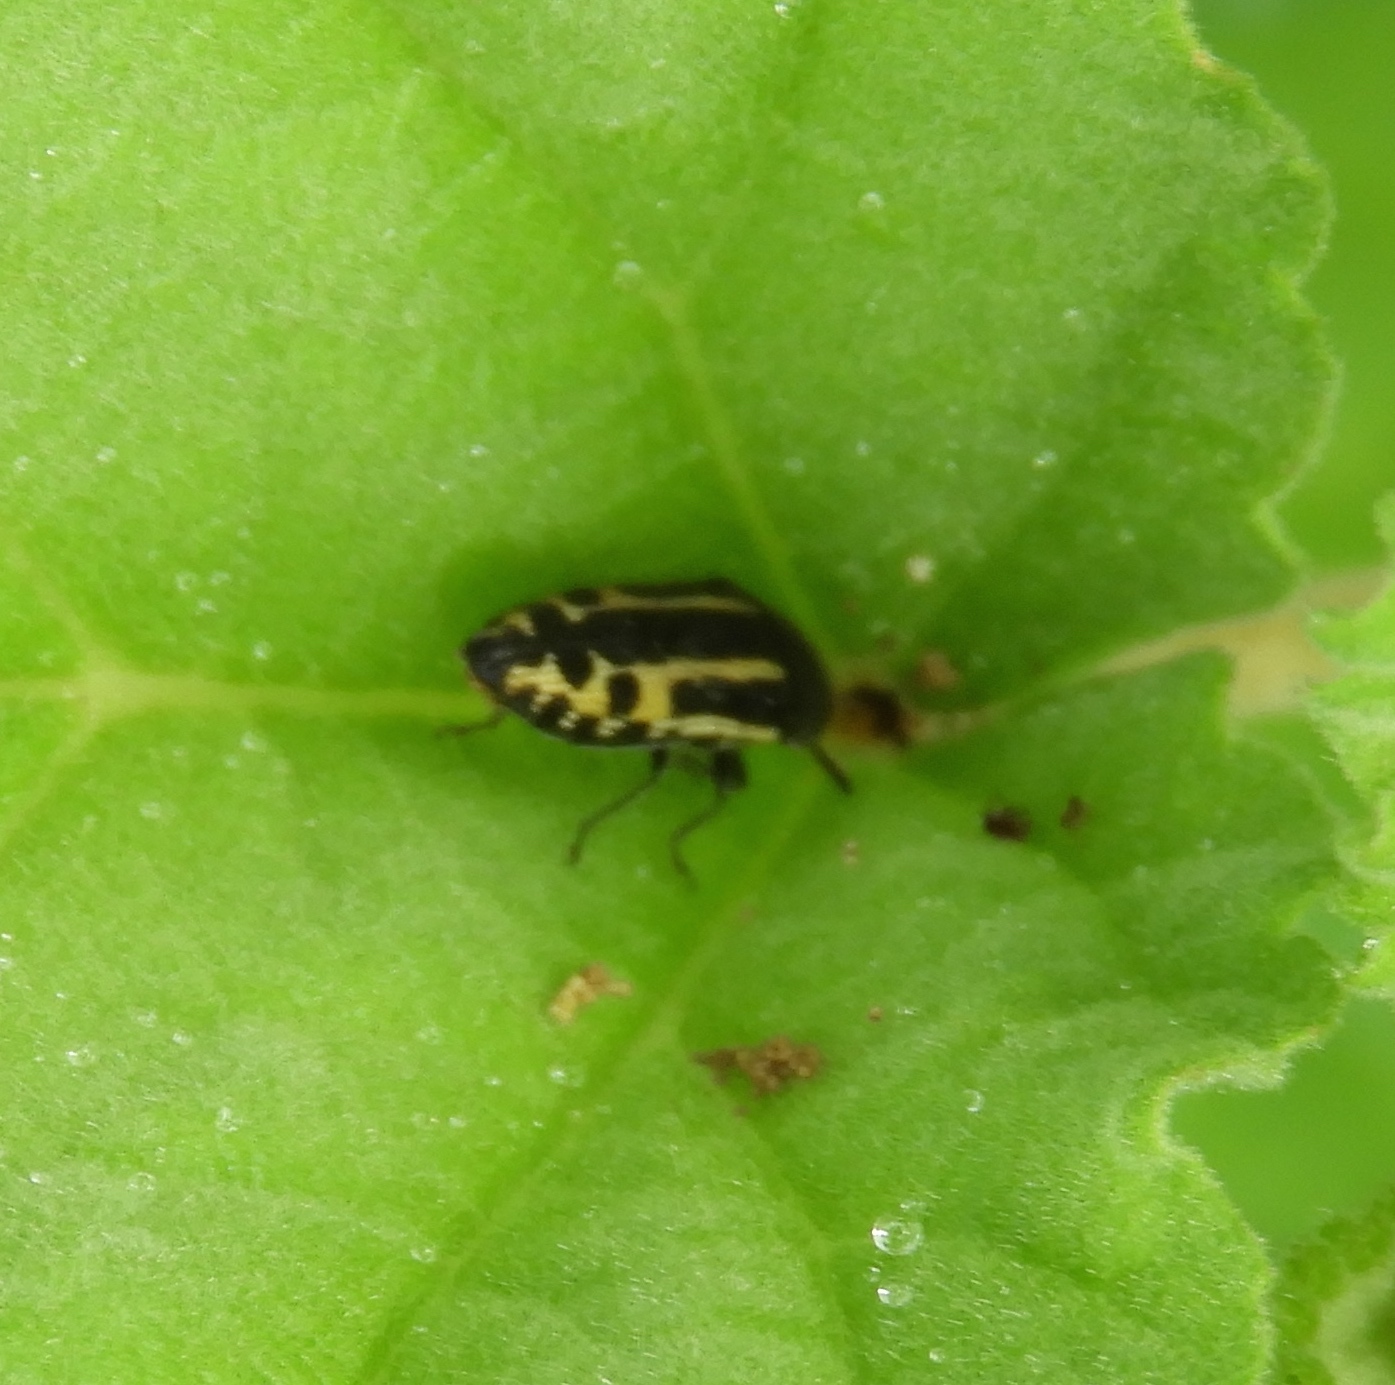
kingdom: Animalia
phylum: Arthropoda
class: Insecta
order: Coleoptera
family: Buprestidae
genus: Acmaeodera
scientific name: Acmaeodera scalaris
